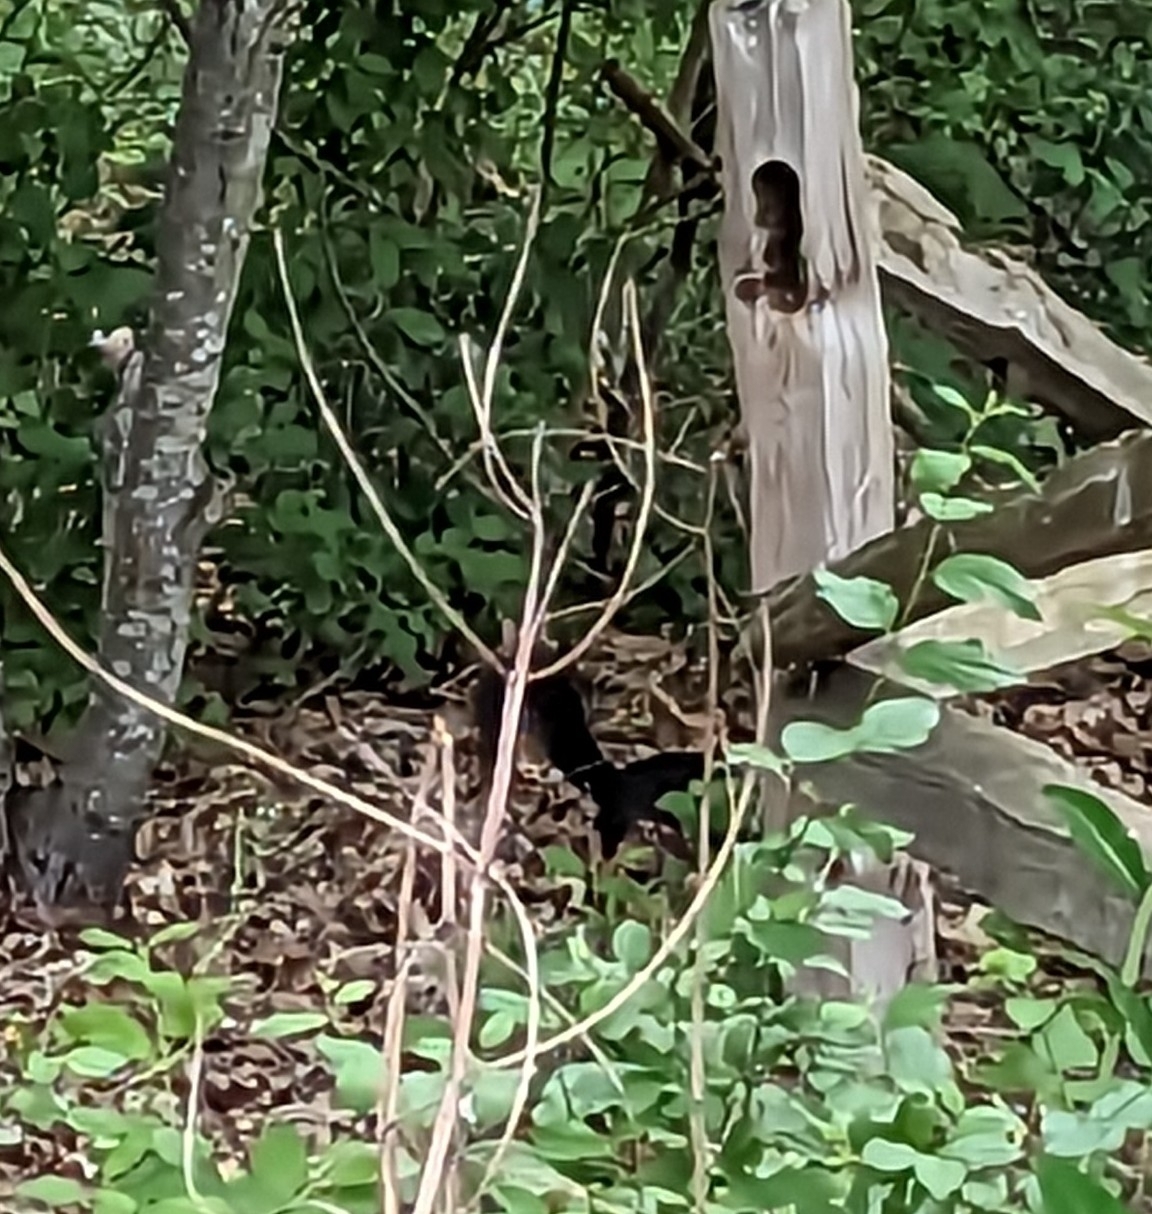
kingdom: Animalia
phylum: Chordata
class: Mammalia
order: Rodentia
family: Sciuridae
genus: Sciurus
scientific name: Sciurus carolinensis
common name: Eastern gray squirrel
